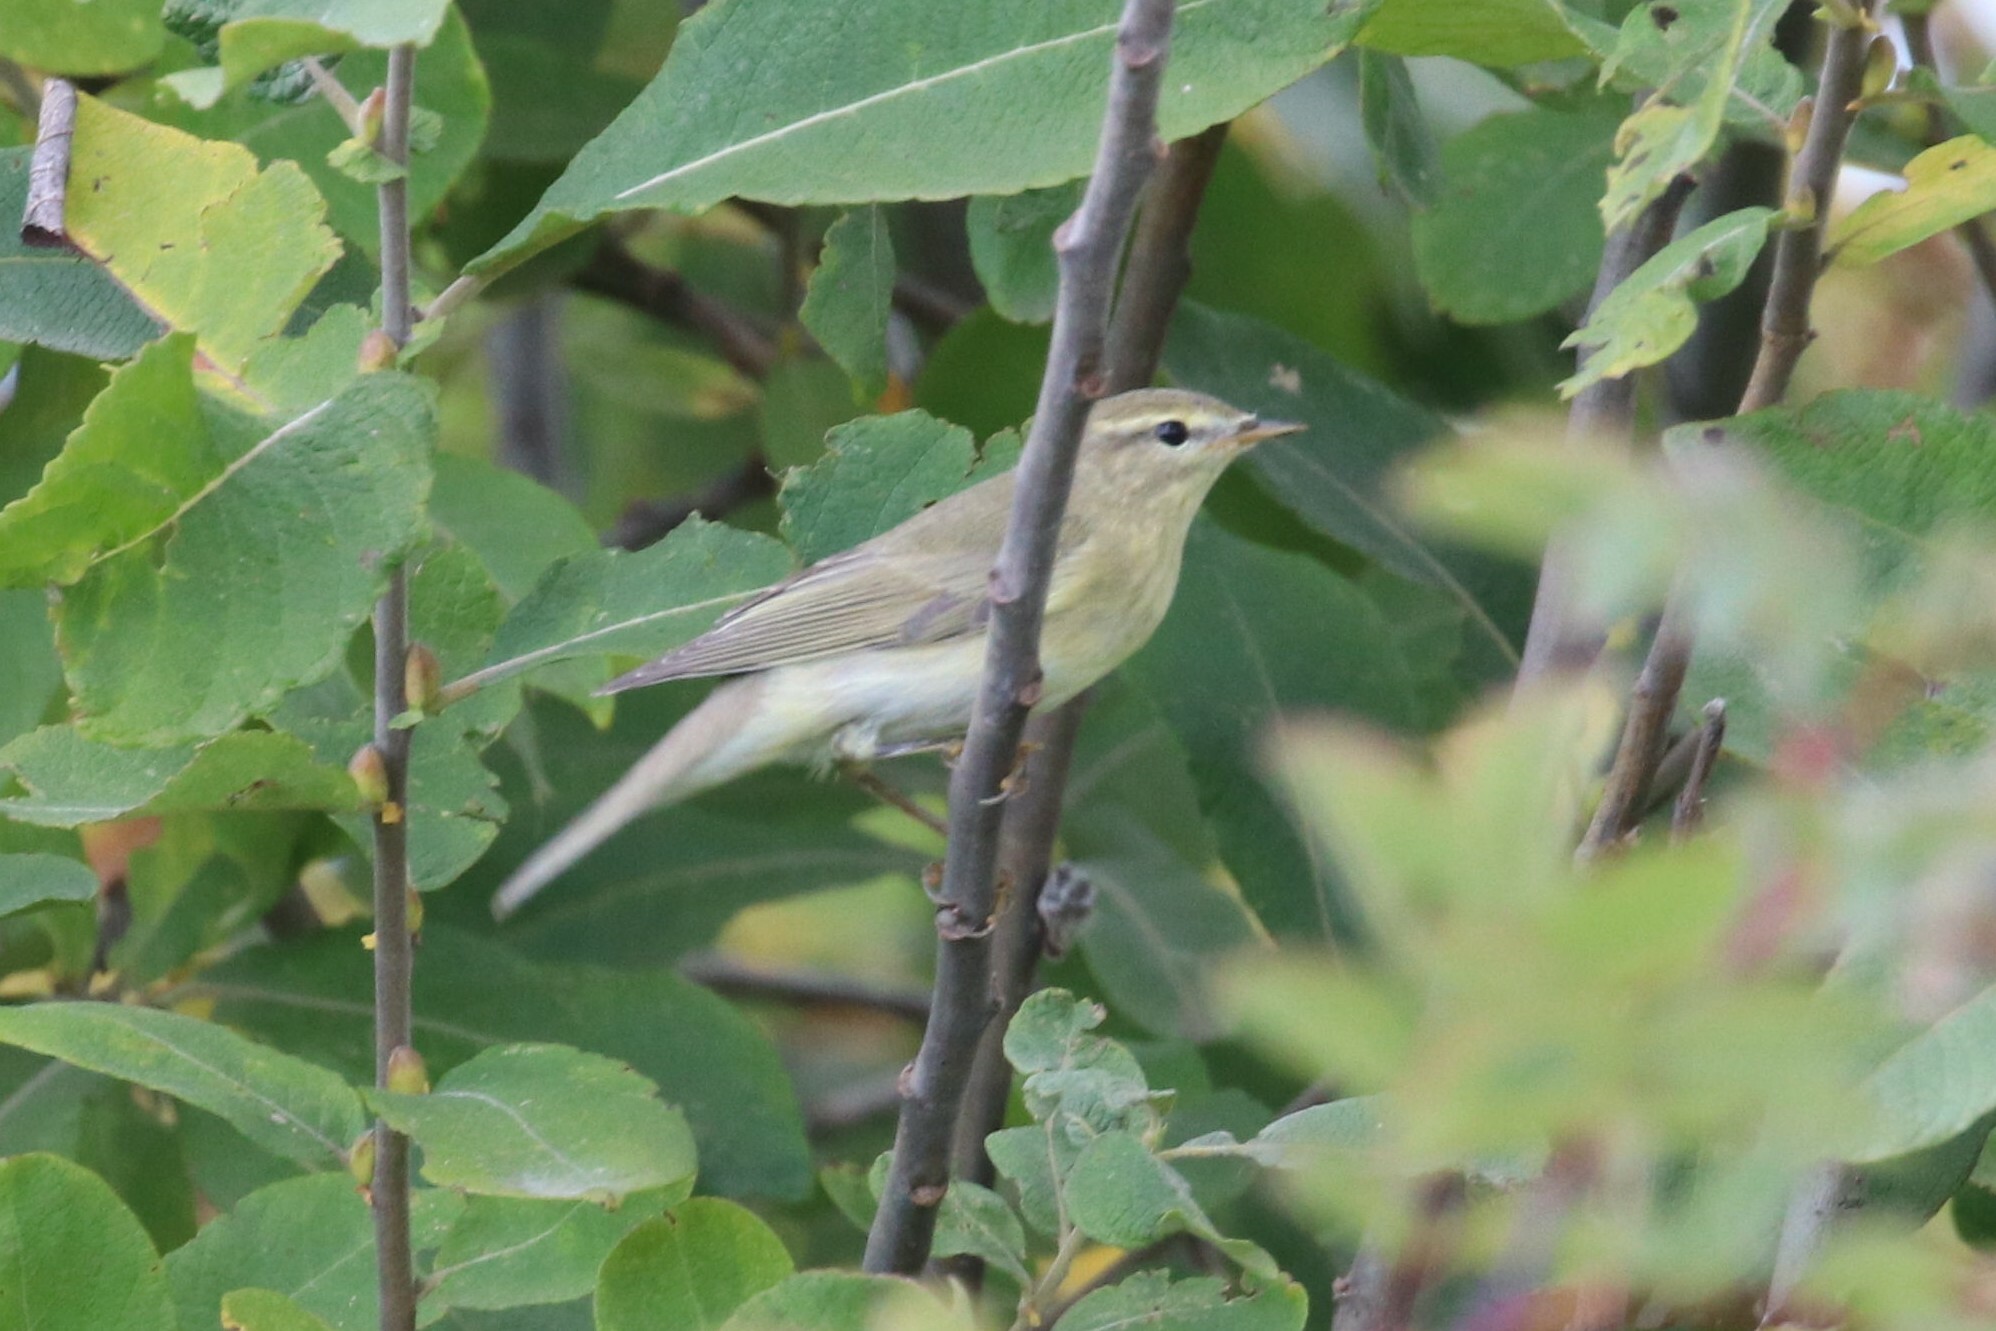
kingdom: Animalia
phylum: Chordata
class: Aves
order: Passeriformes
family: Phylloscopidae
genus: Phylloscopus
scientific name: Phylloscopus trochilus
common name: Willow warbler
